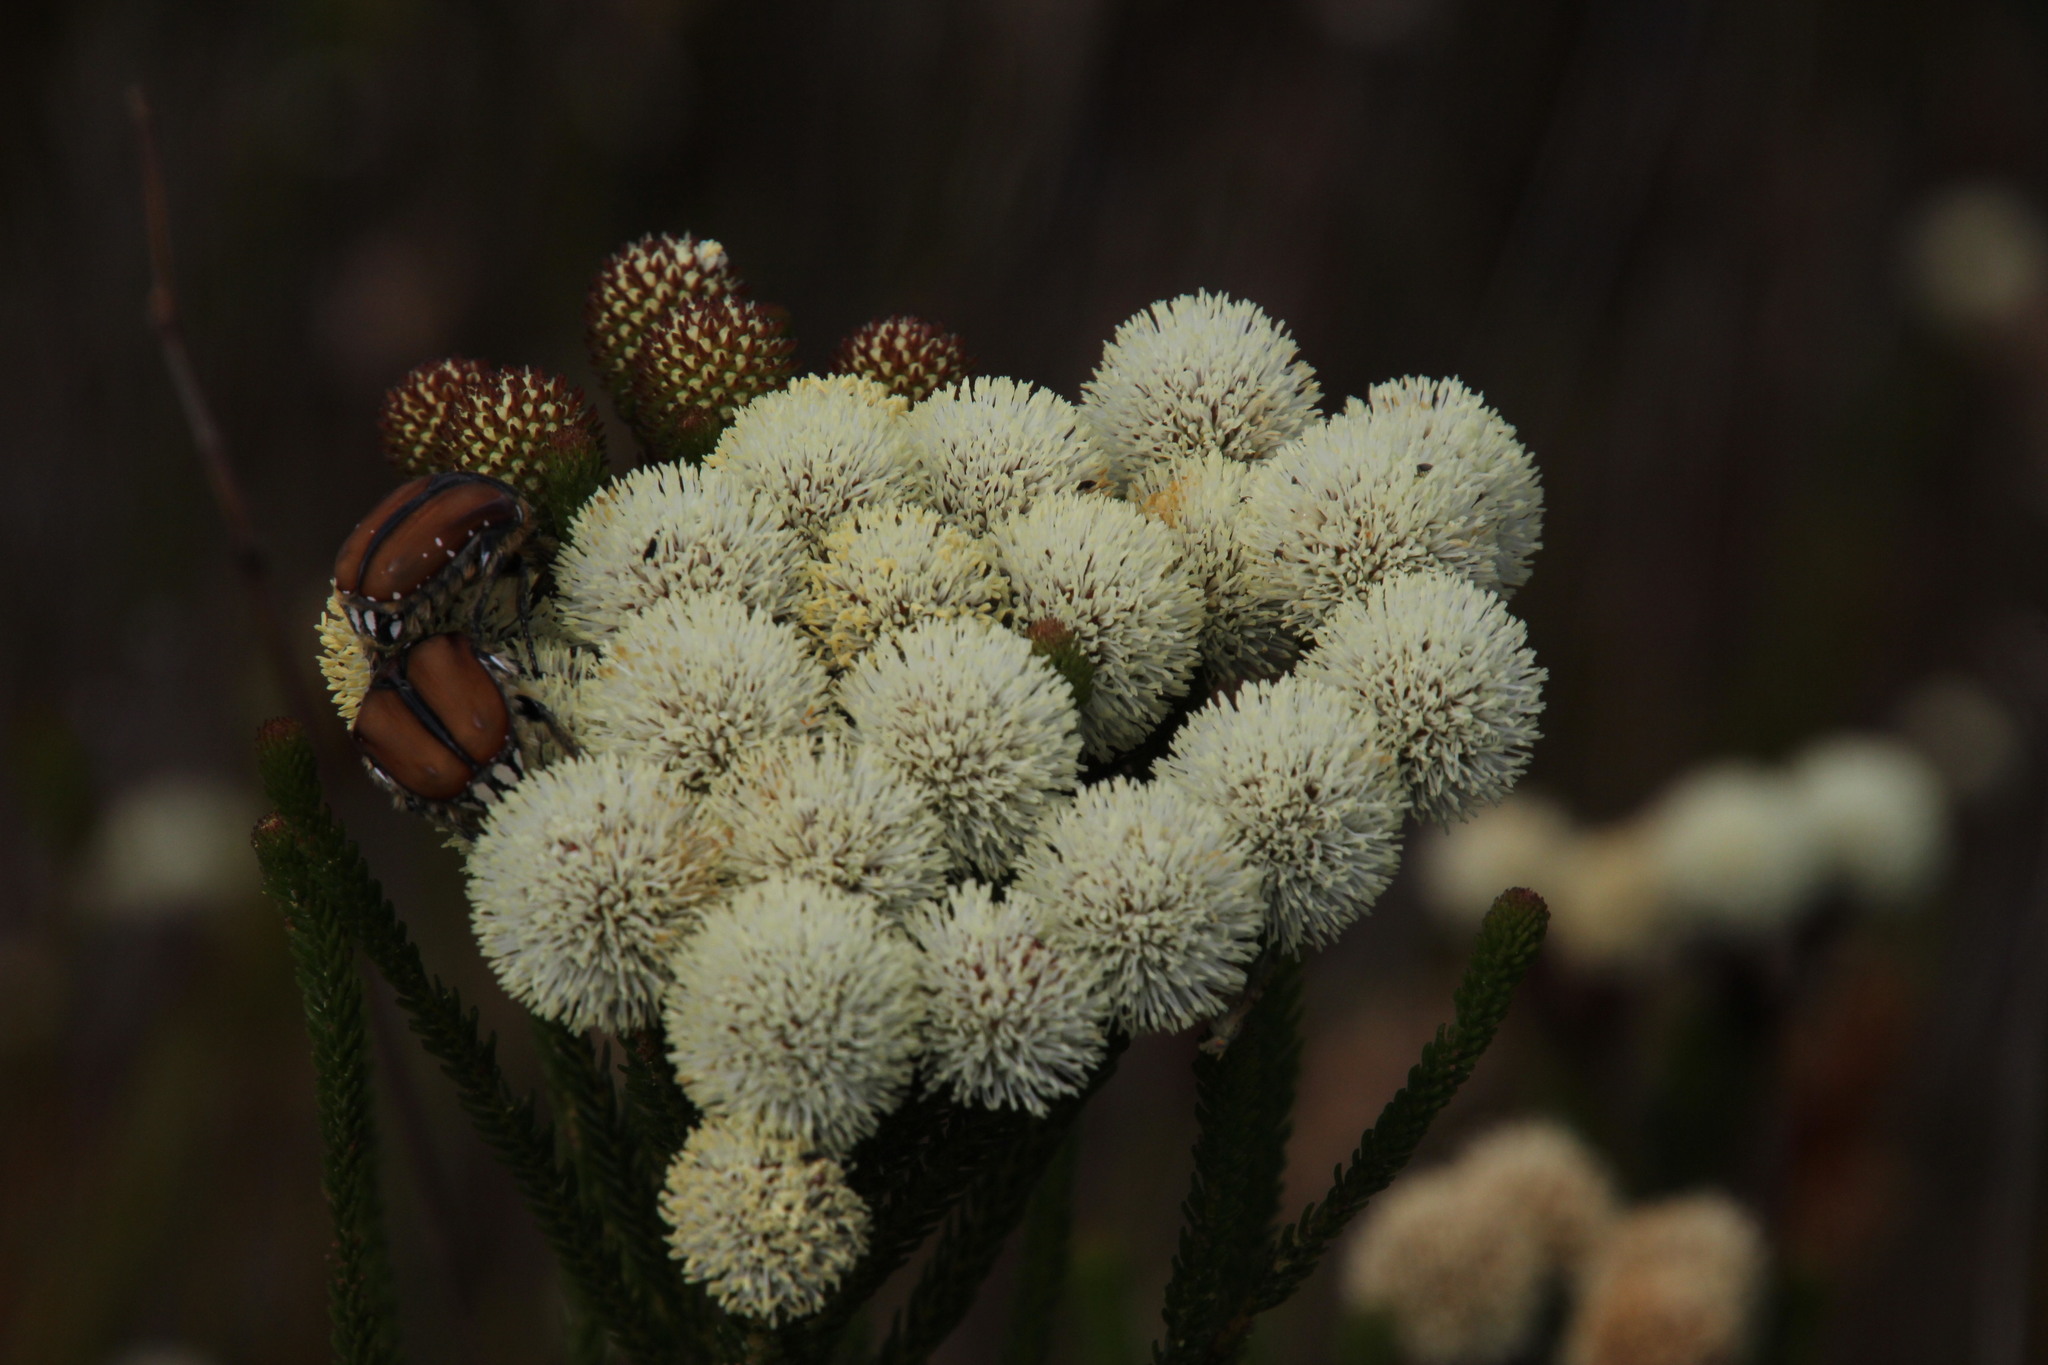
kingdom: Animalia
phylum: Arthropoda
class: Insecta
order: Coleoptera
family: Scarabaeidae
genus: Trichostetha
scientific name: Trichostetha signata
